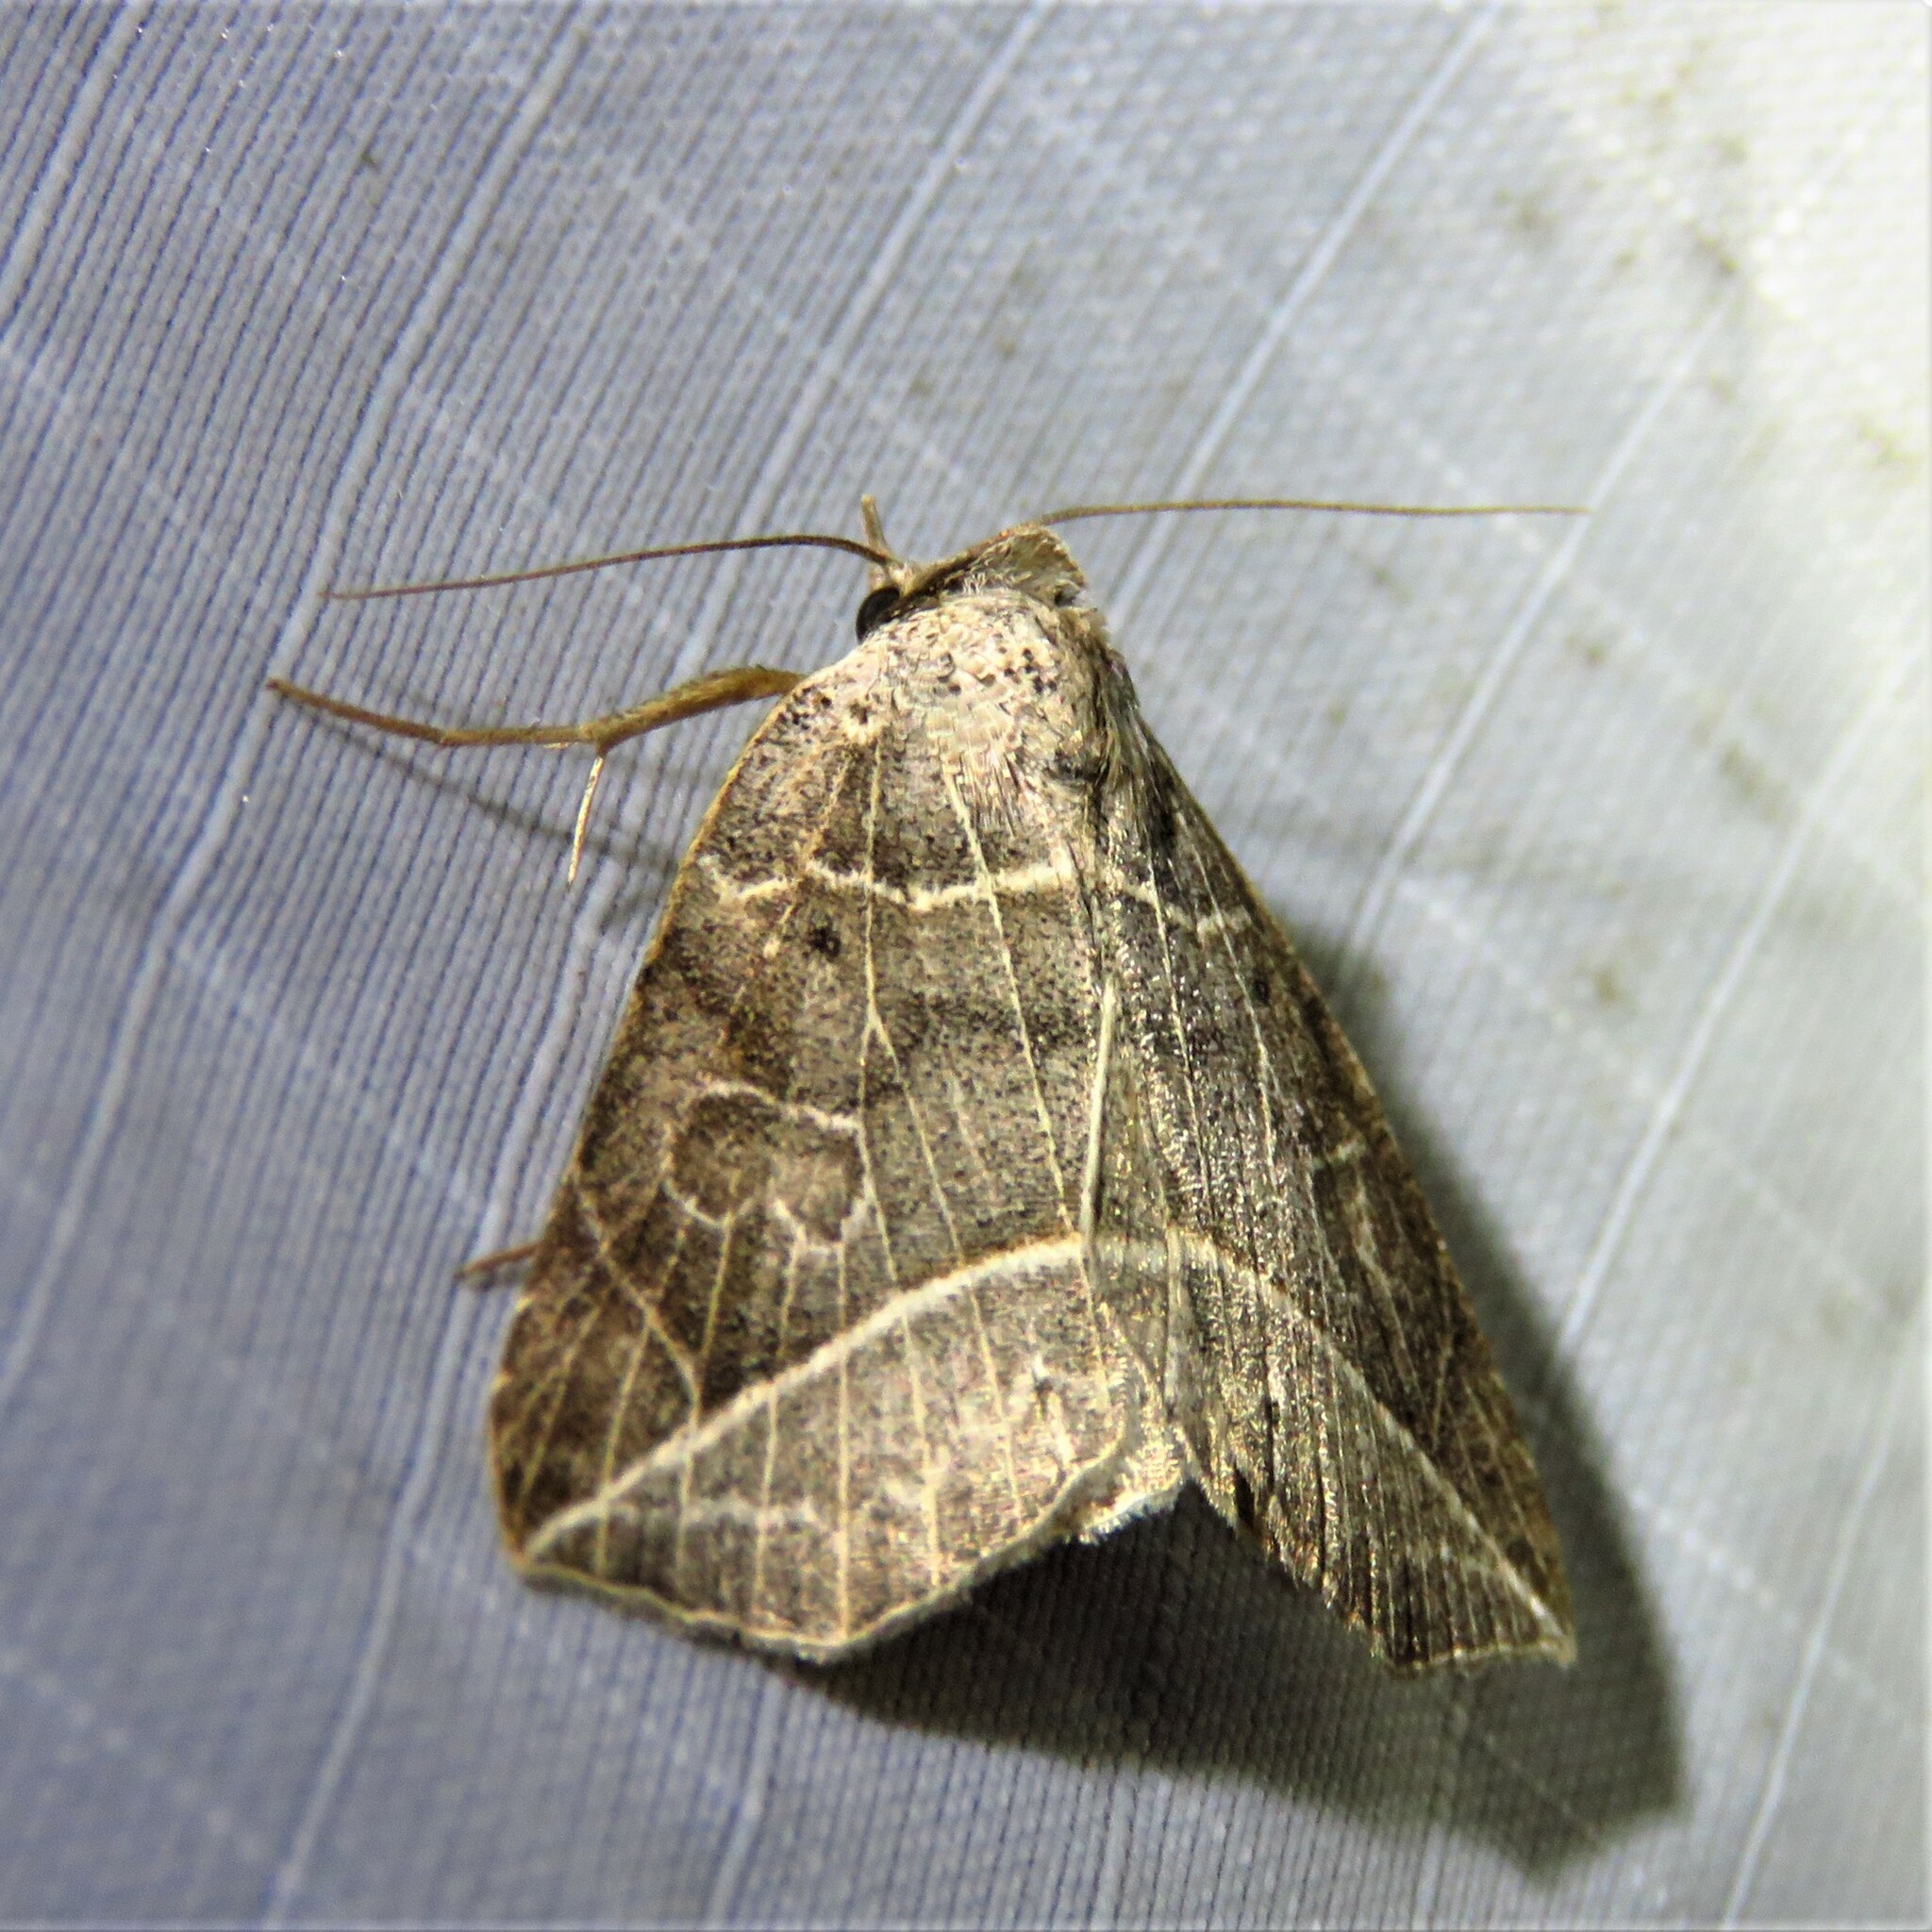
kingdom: Animalia
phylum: Arthropoda
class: Insecta
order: Lepidoptera
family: Erebidae
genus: Isogona
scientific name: Isogona tenuis
